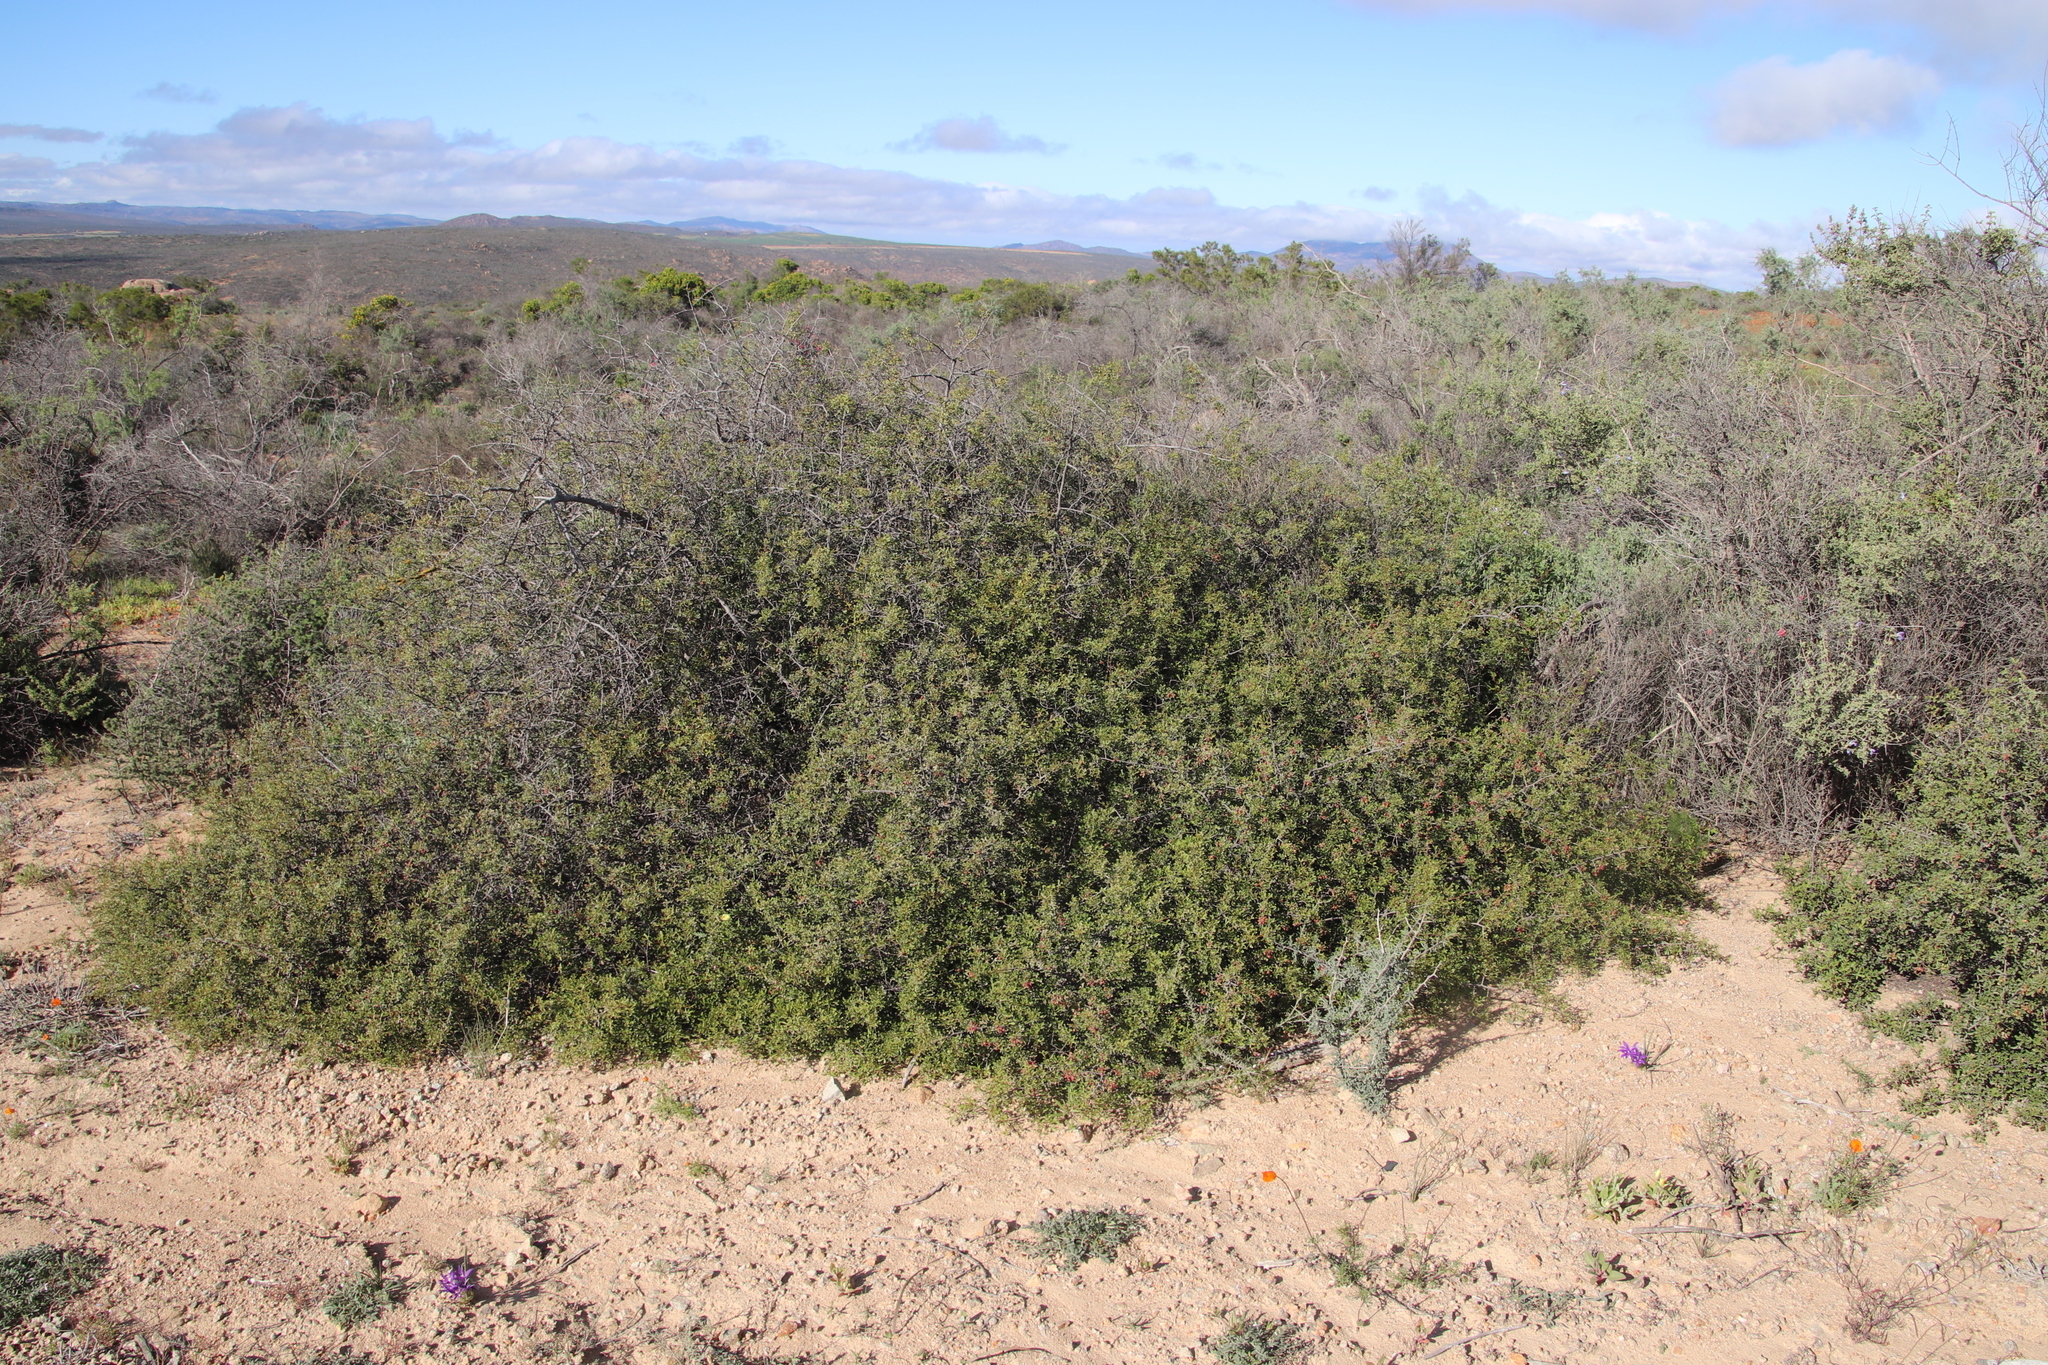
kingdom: Plantae
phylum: Tracheophyta
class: Magnoliopsida
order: Sapindales
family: Anacardiaceae
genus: Searsia
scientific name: Searsia undulata
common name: Namaqua kunibush
